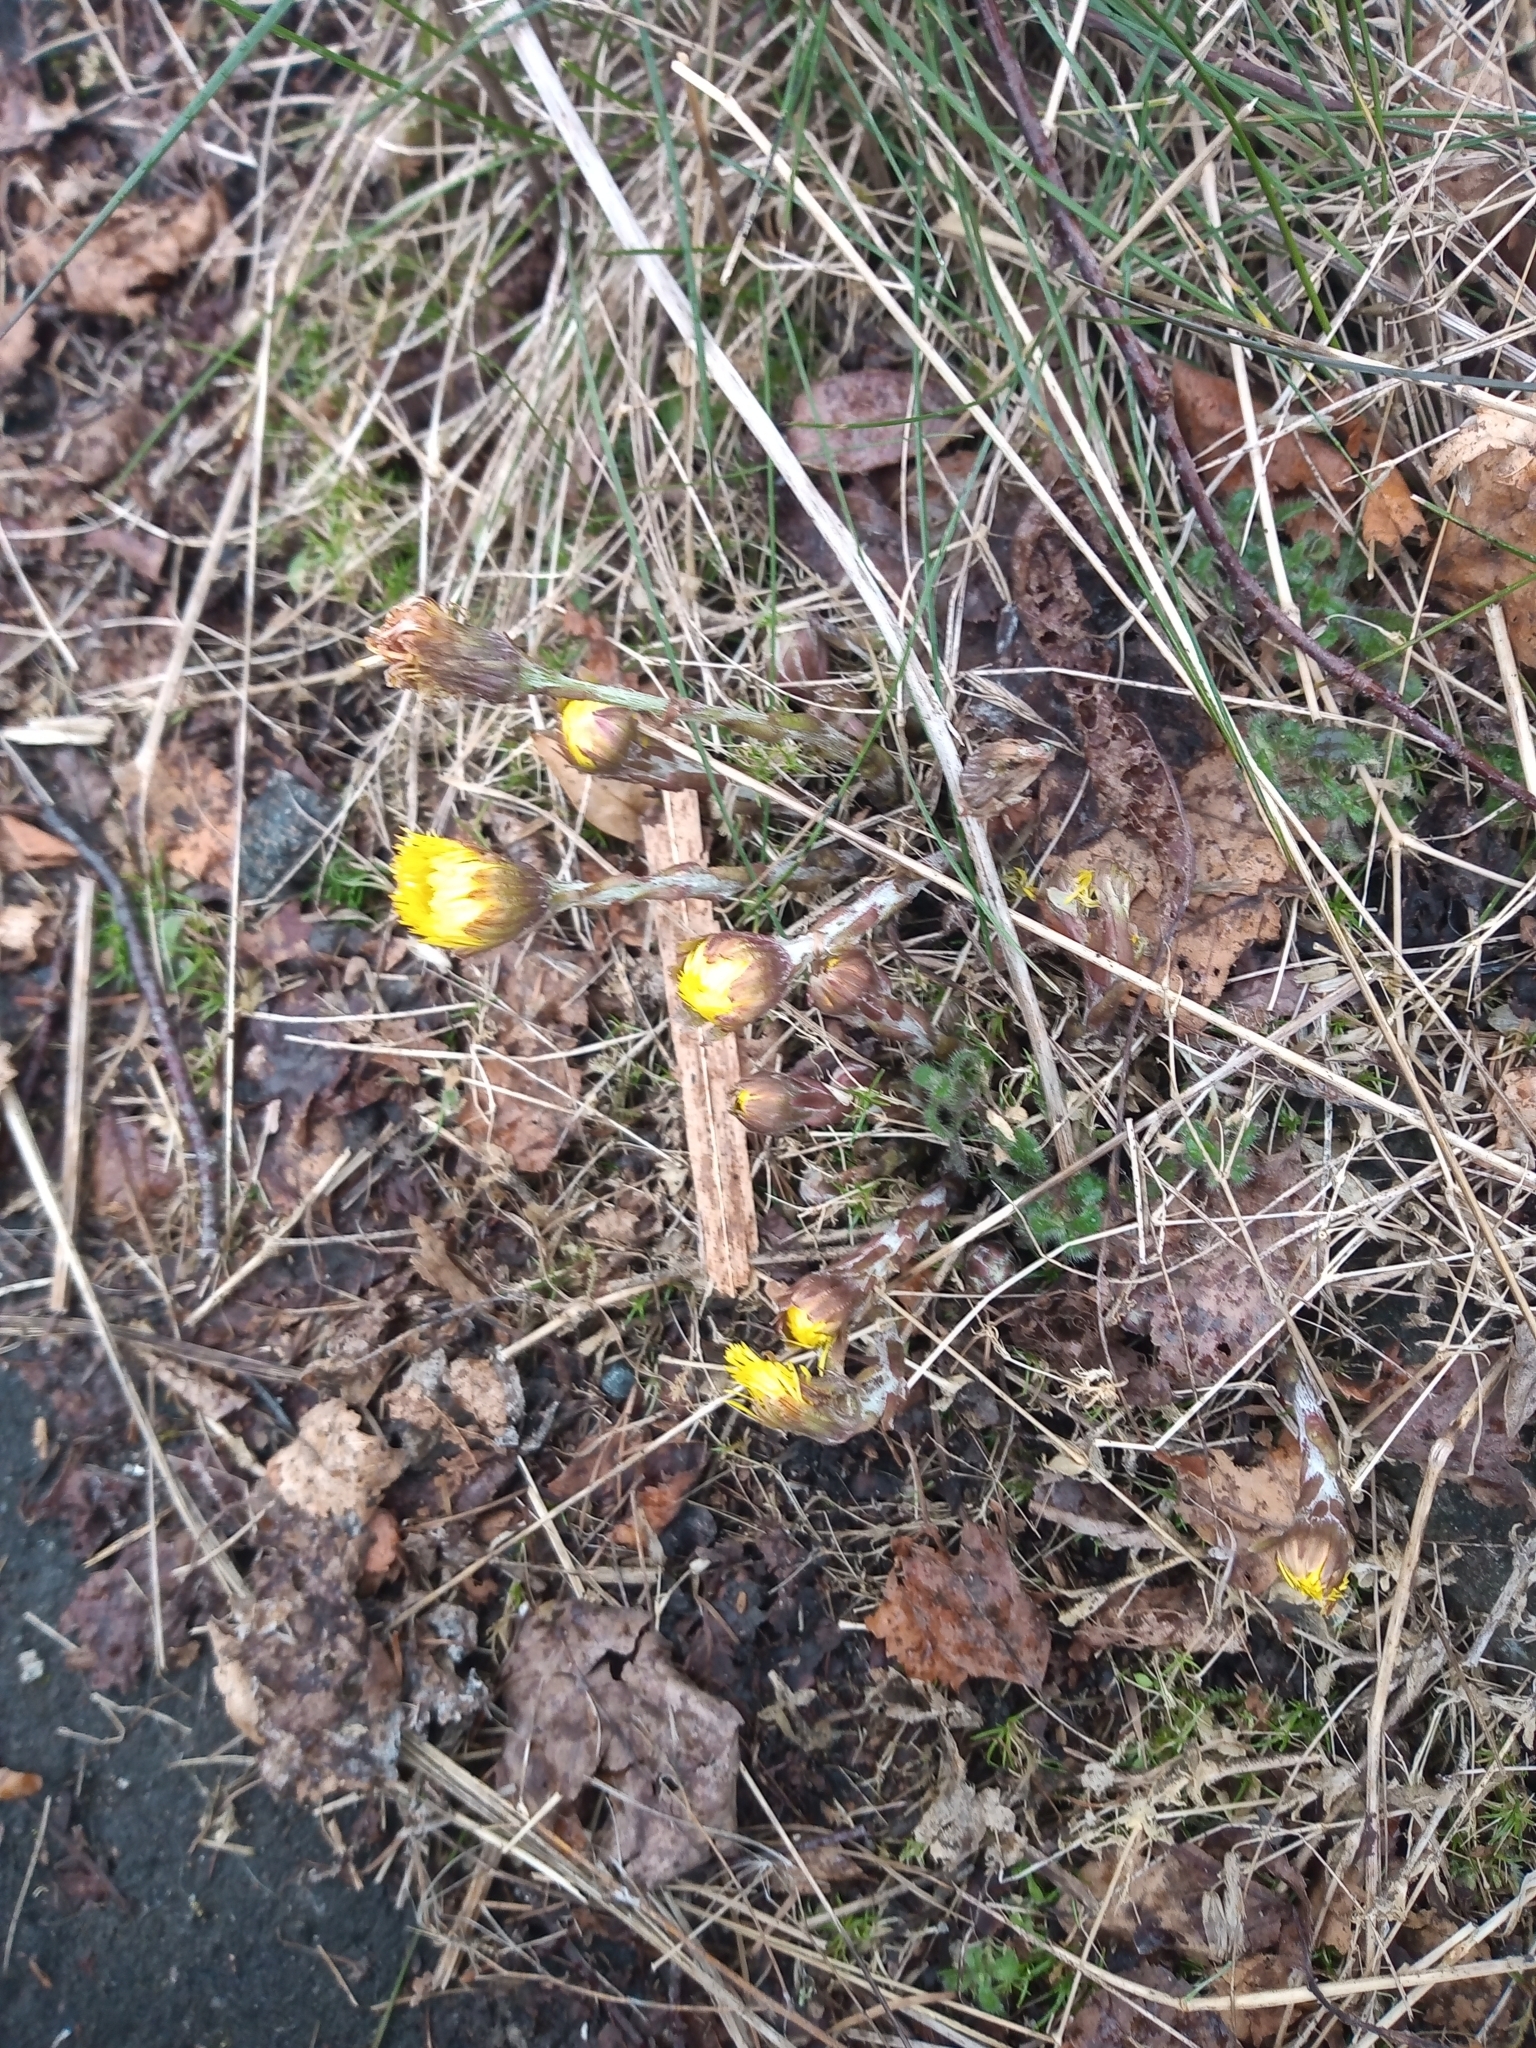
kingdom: Plantae
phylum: Tracheophyta
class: Magnoliopsida
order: Asterales
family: Asteraceae
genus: Tussilago
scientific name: Tussilago farfara
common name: Coltsfoot
